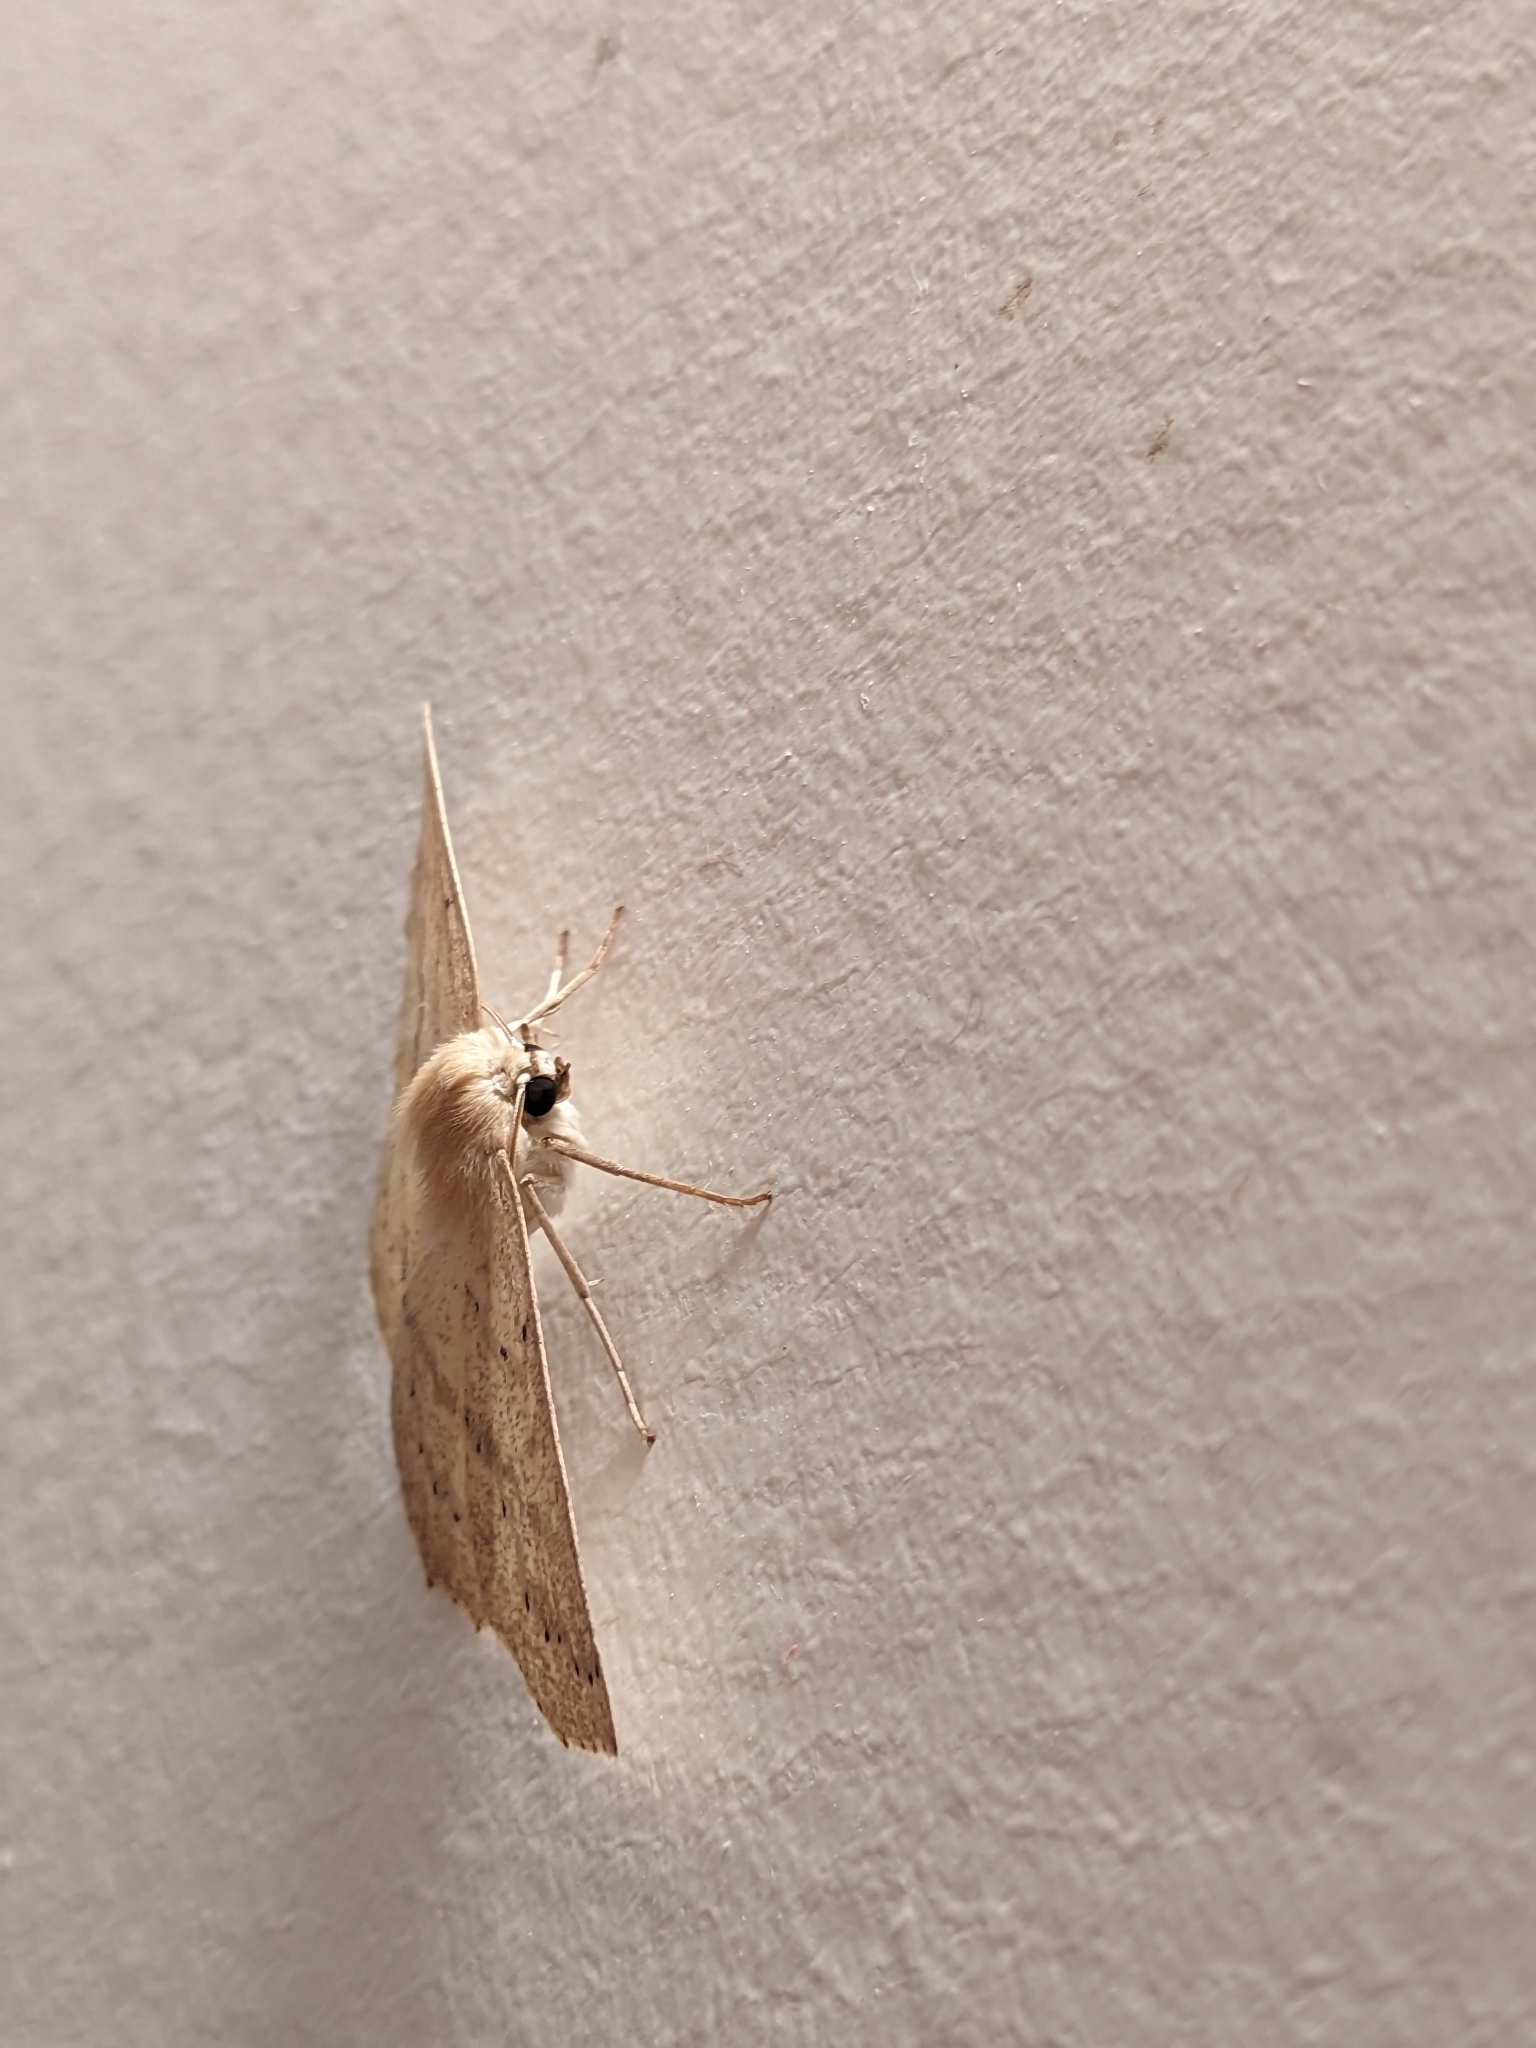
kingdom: Animalia
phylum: Arthropoda
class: Insecta
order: Lepidoptera
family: Geometridae
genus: Sabulodes
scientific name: Sabulodes aegrotata
